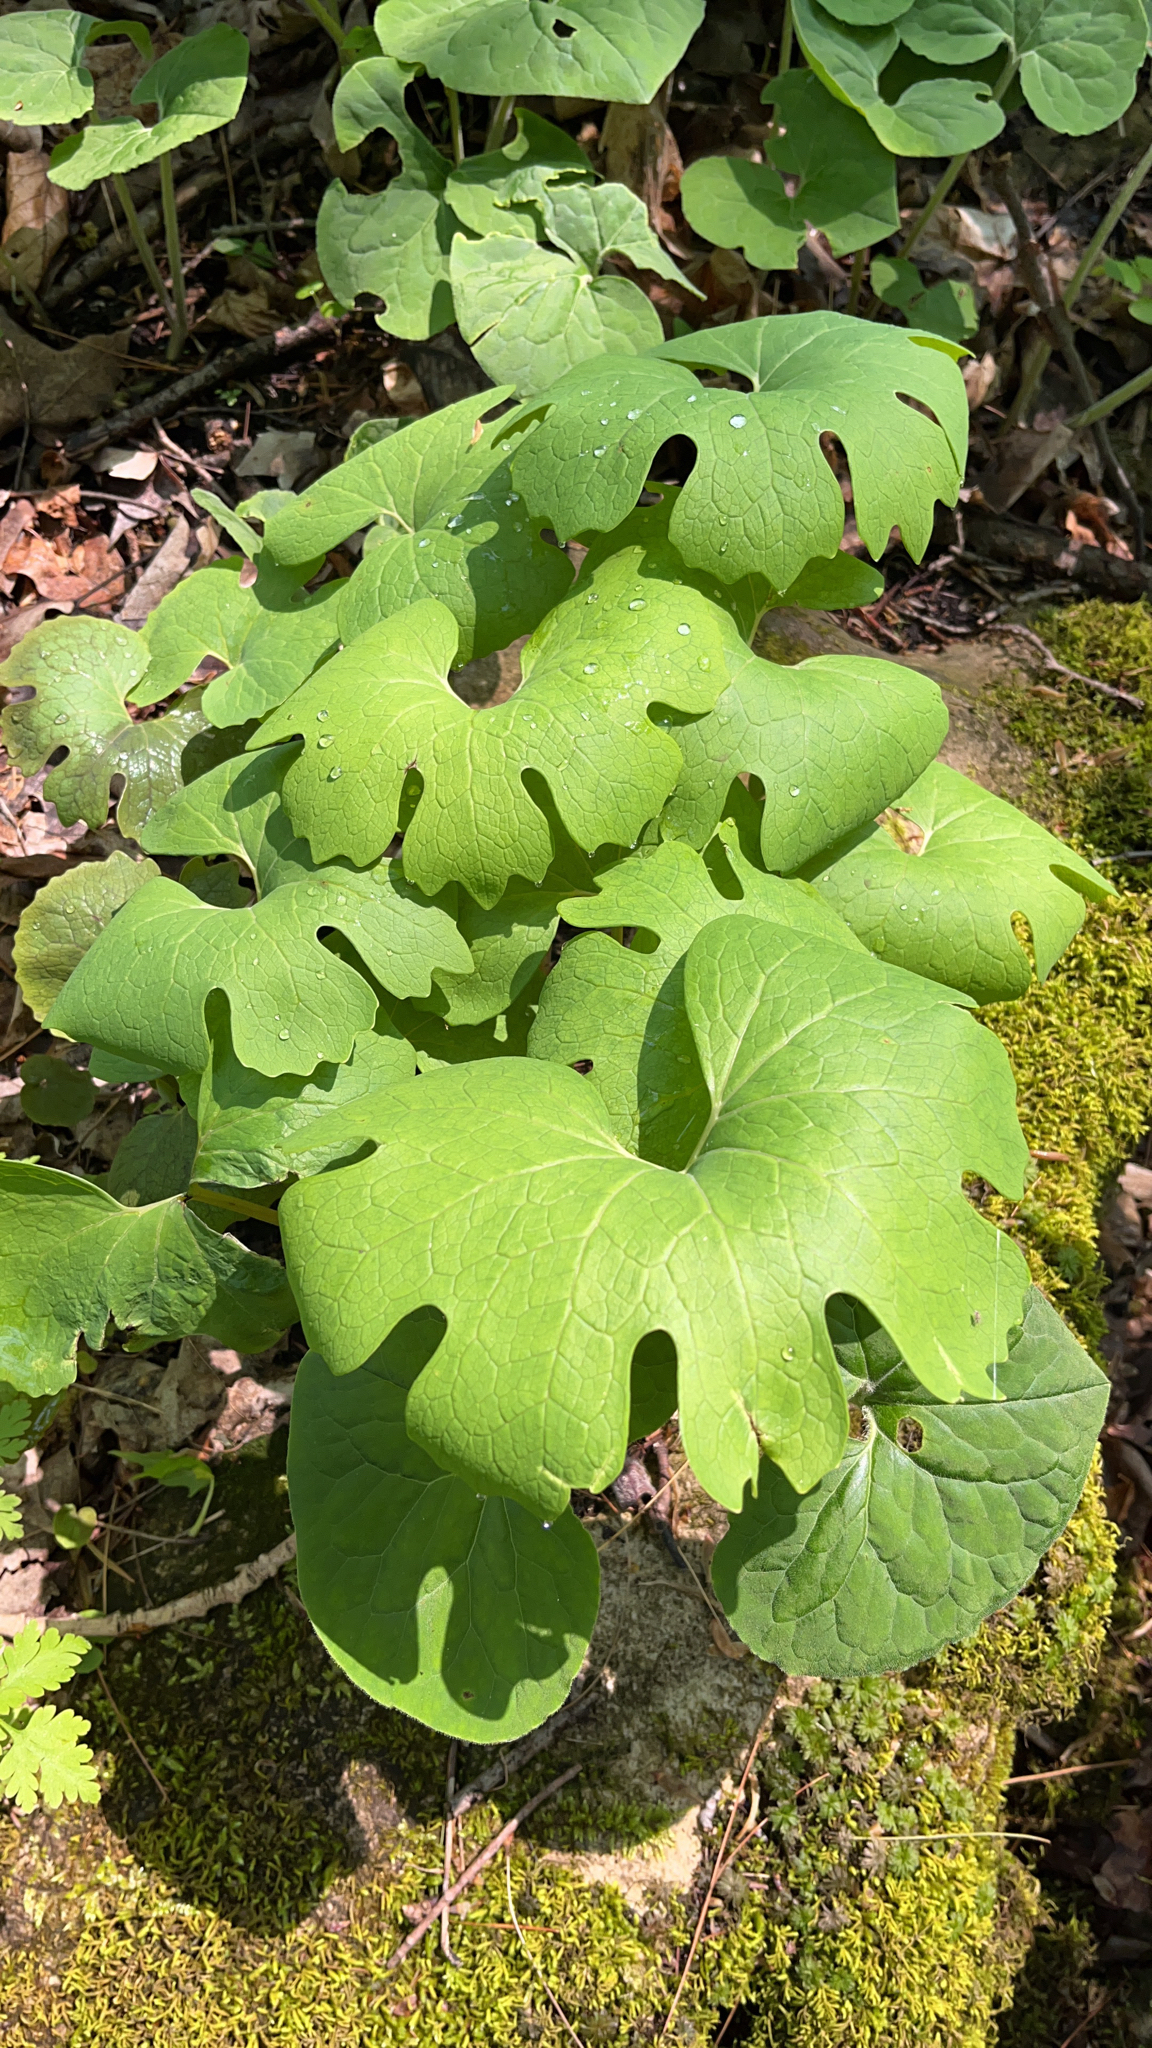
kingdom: Plantae
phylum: Tracheophyta
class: Magnoliopsida
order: Ranunculales
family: Papaveraceae
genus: Sanguinaria
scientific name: Sanguinaria canadensis
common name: Bloodroot
